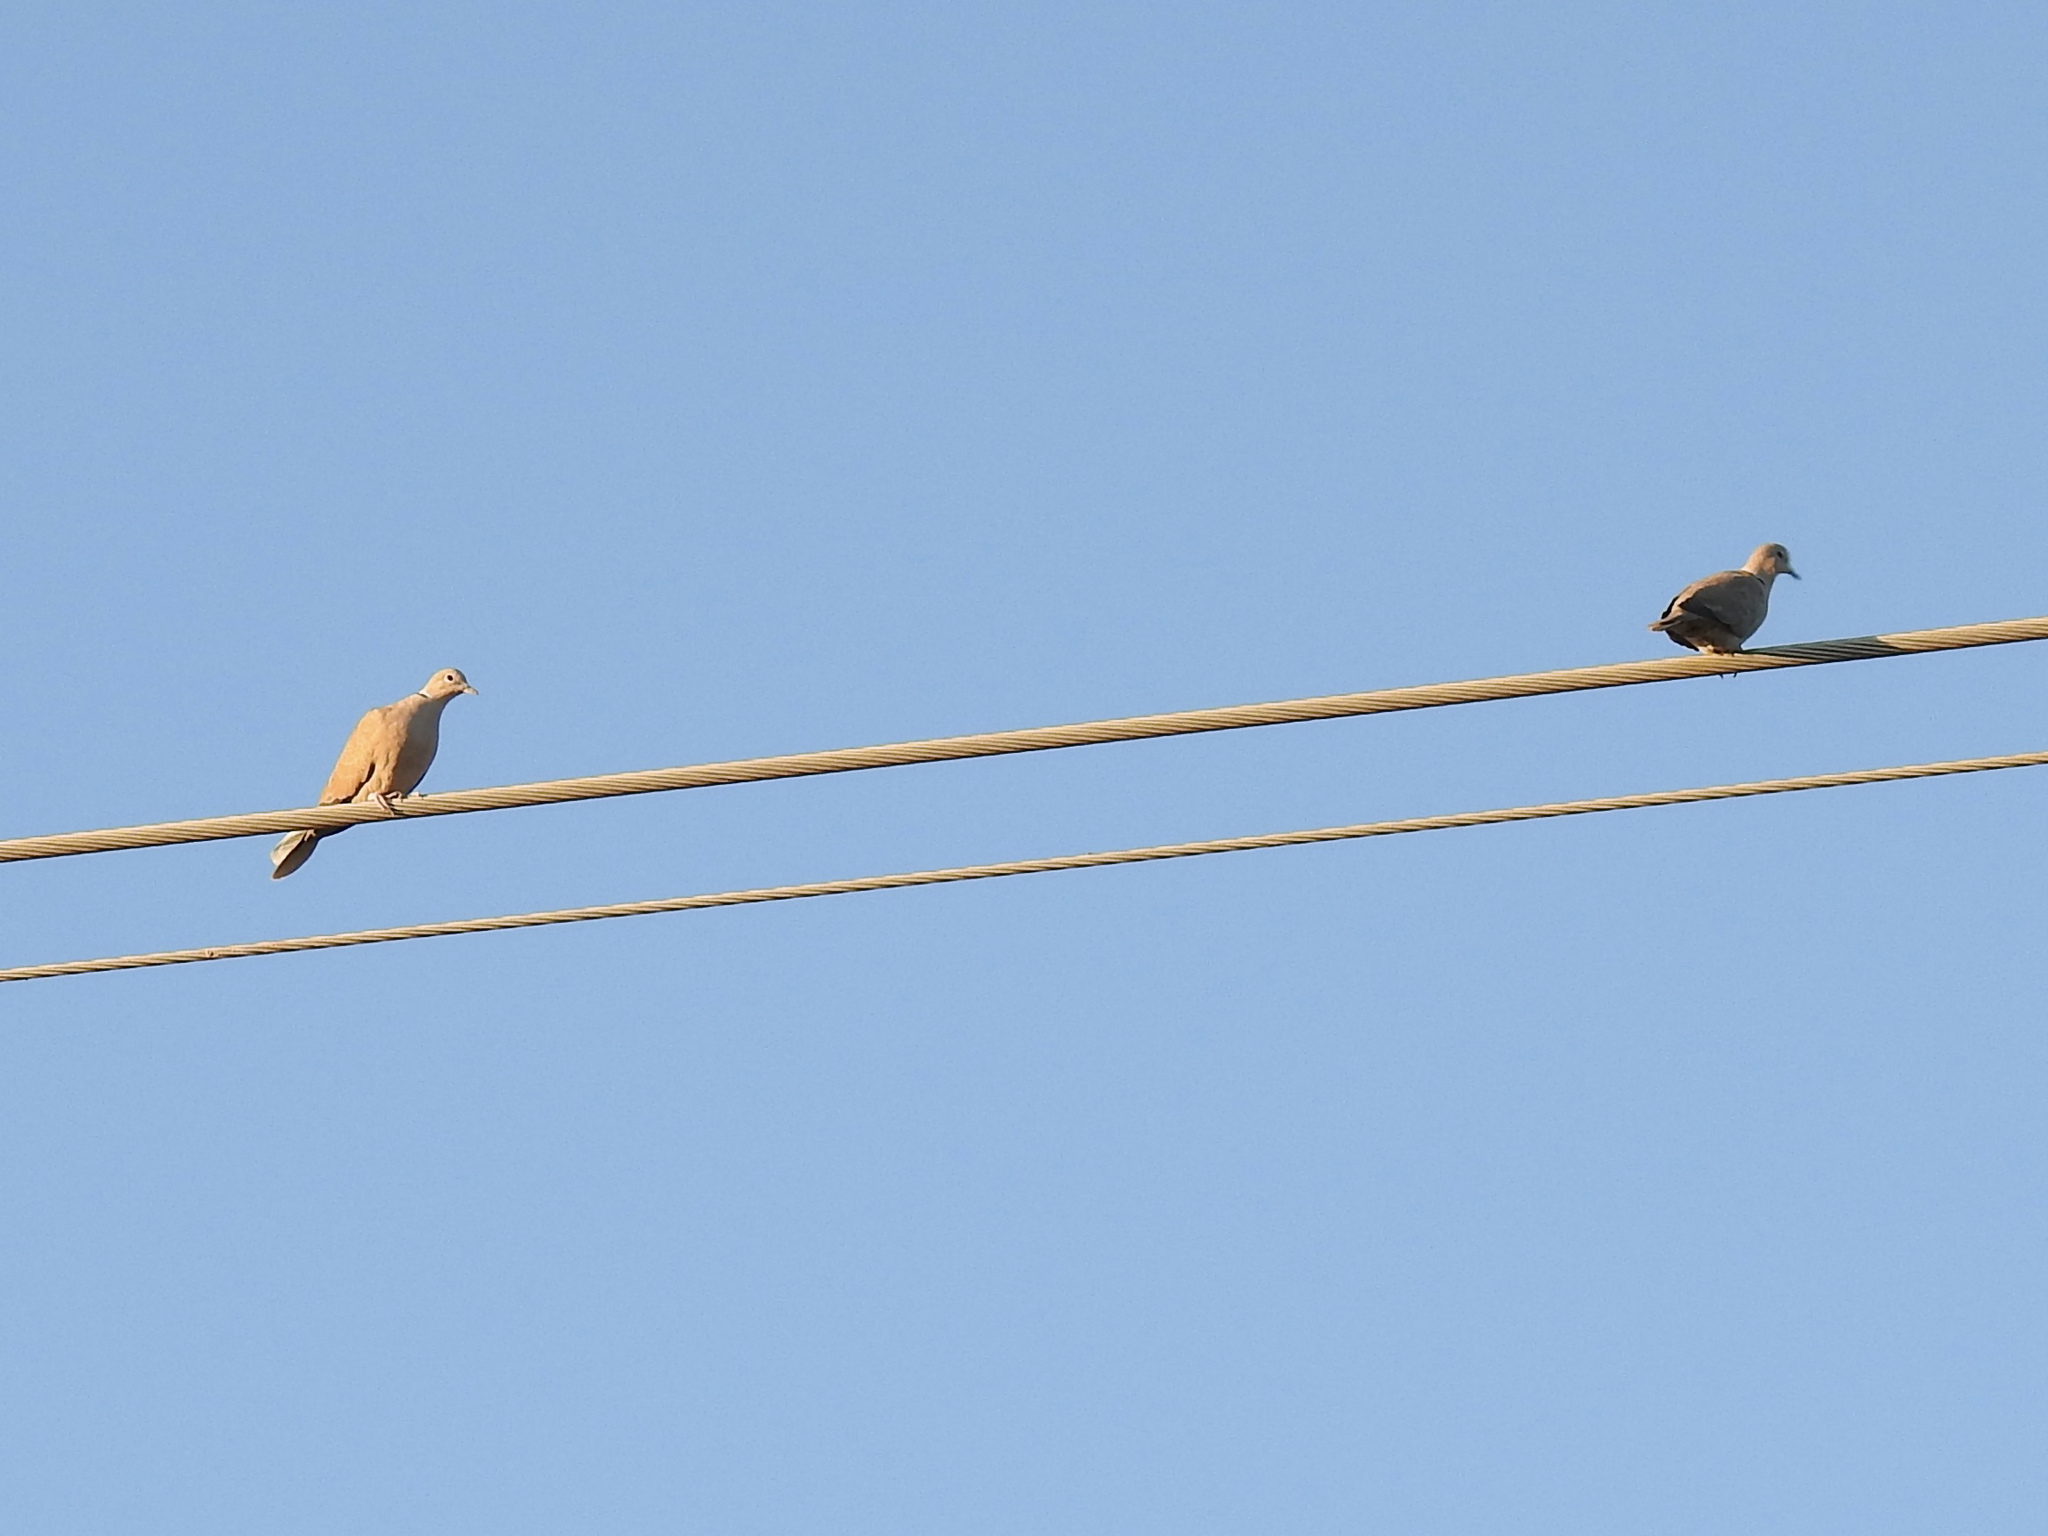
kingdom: Animalia
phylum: Chordata
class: Aves
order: Columbiformes
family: Columbidae
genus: Streptopelia
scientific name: Streptopelia decaocto
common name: Eurasian collared dove
